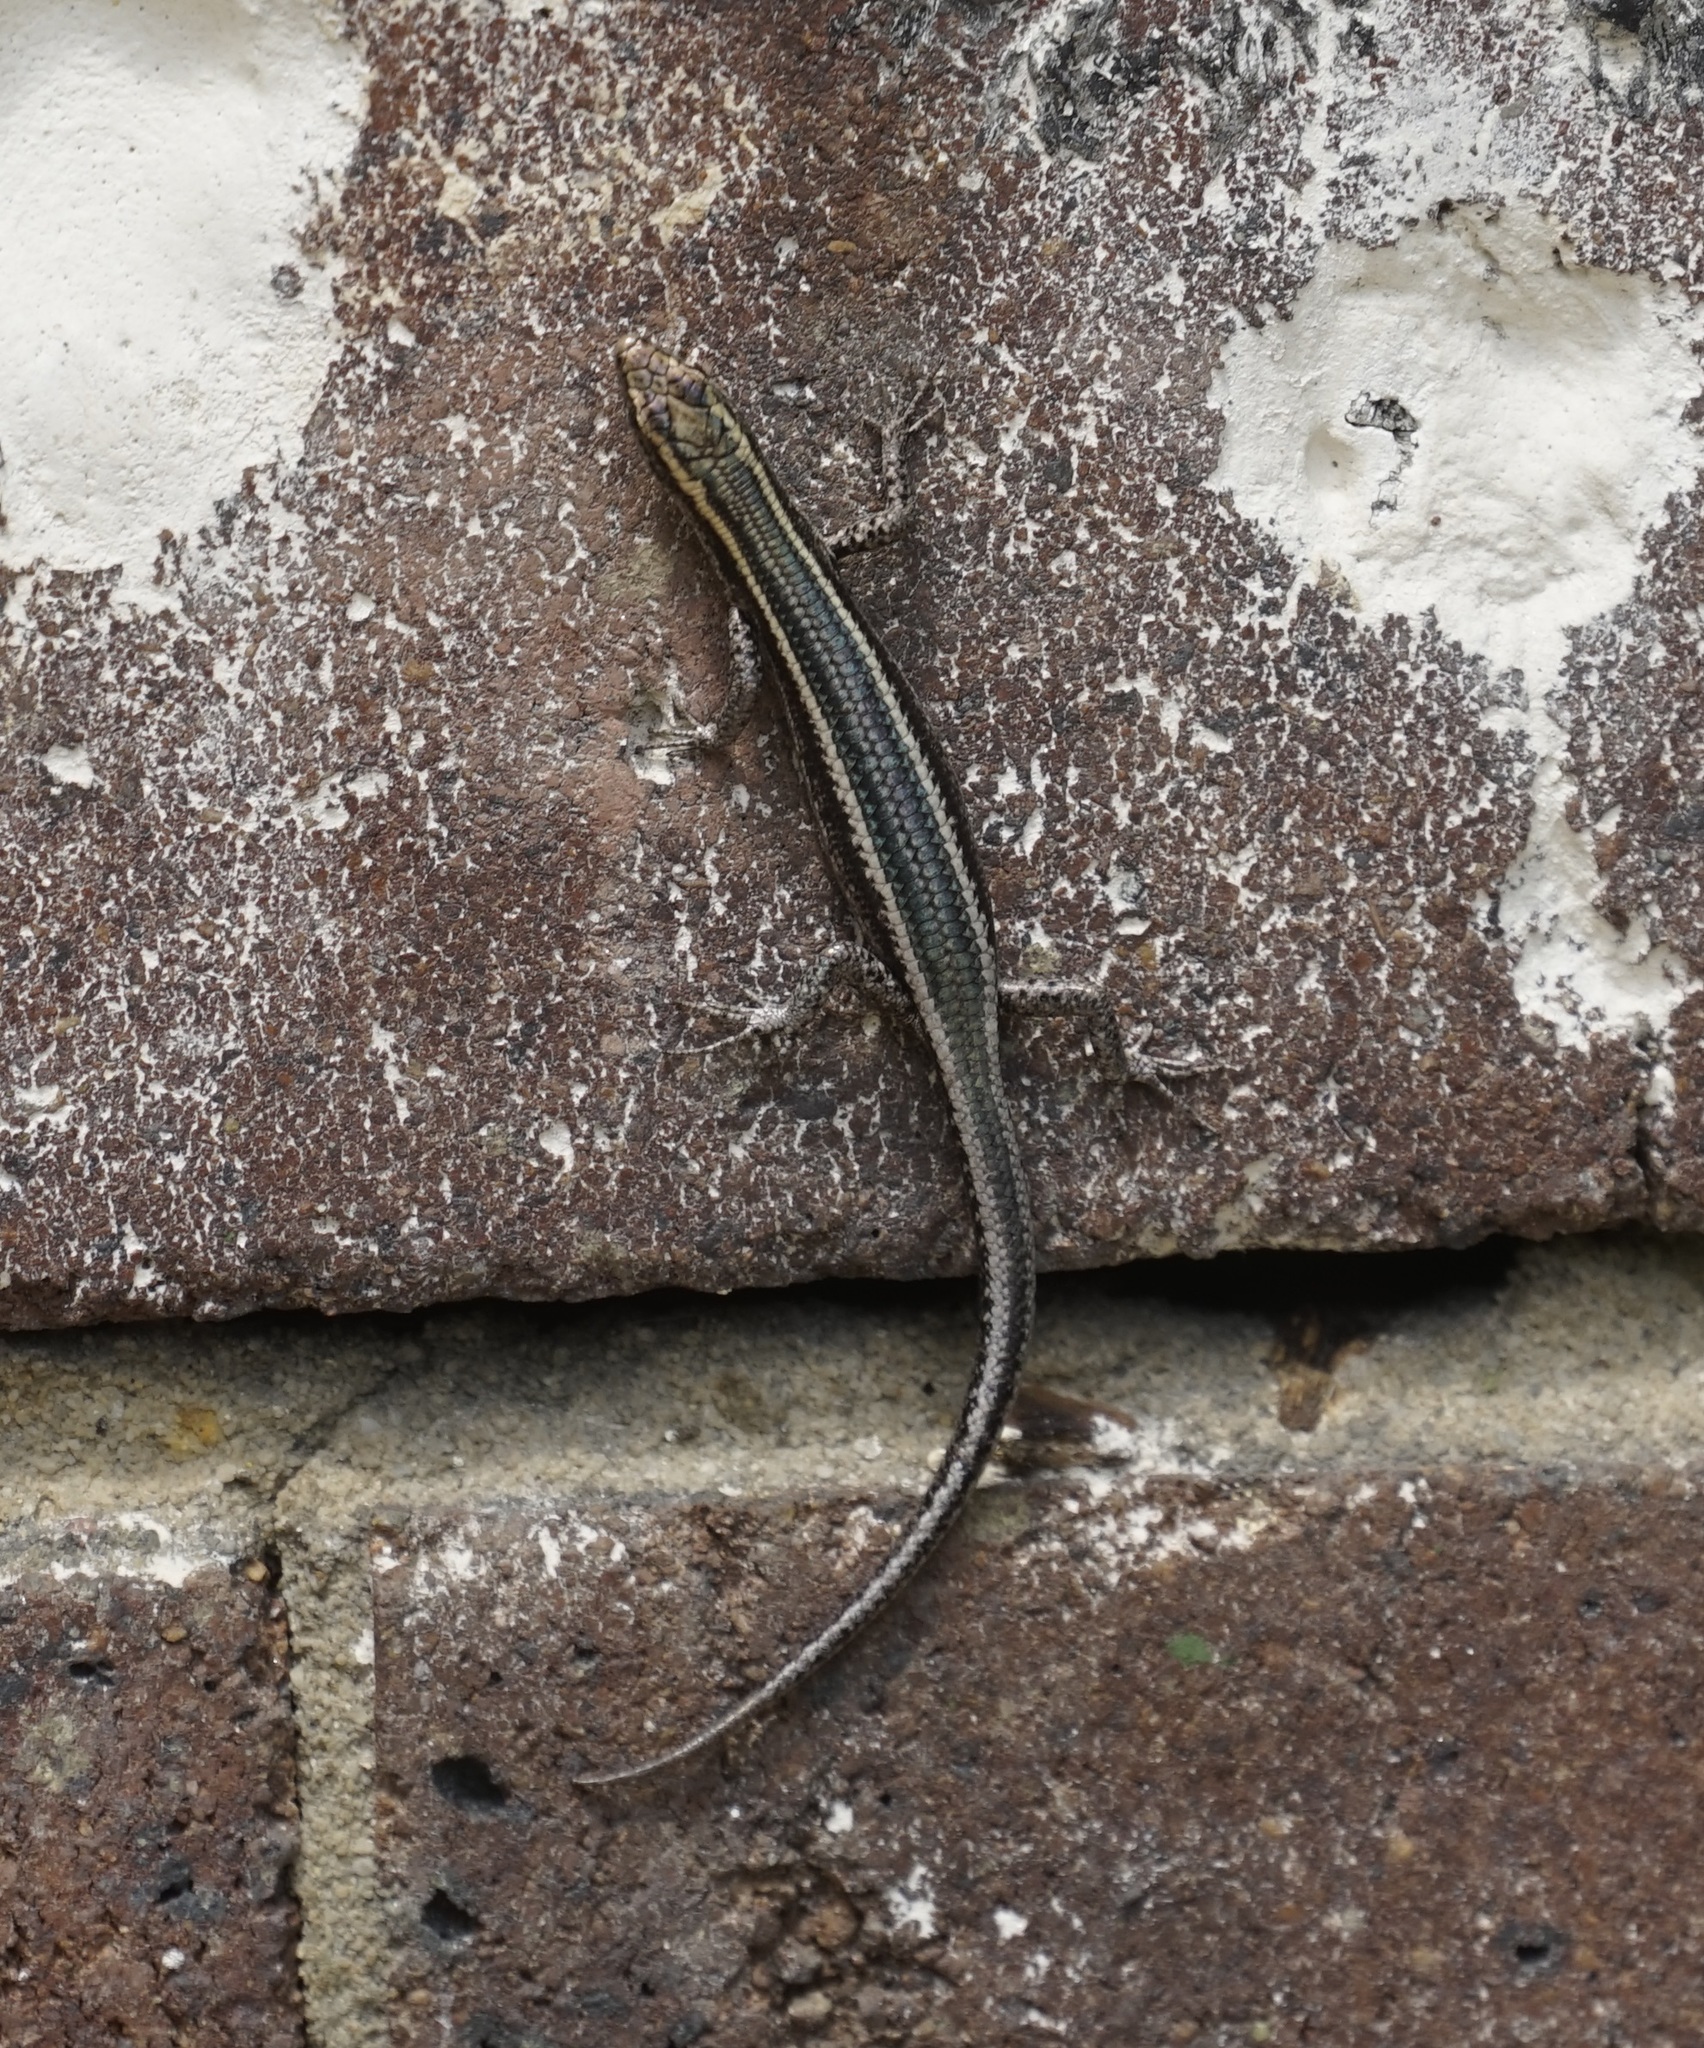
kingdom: Animalia
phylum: Chordata
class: Squamata
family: Scincidae
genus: Cryptoblepharus
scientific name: Cryptoblepharus pulcher
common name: Elegant snake-eyed skink
